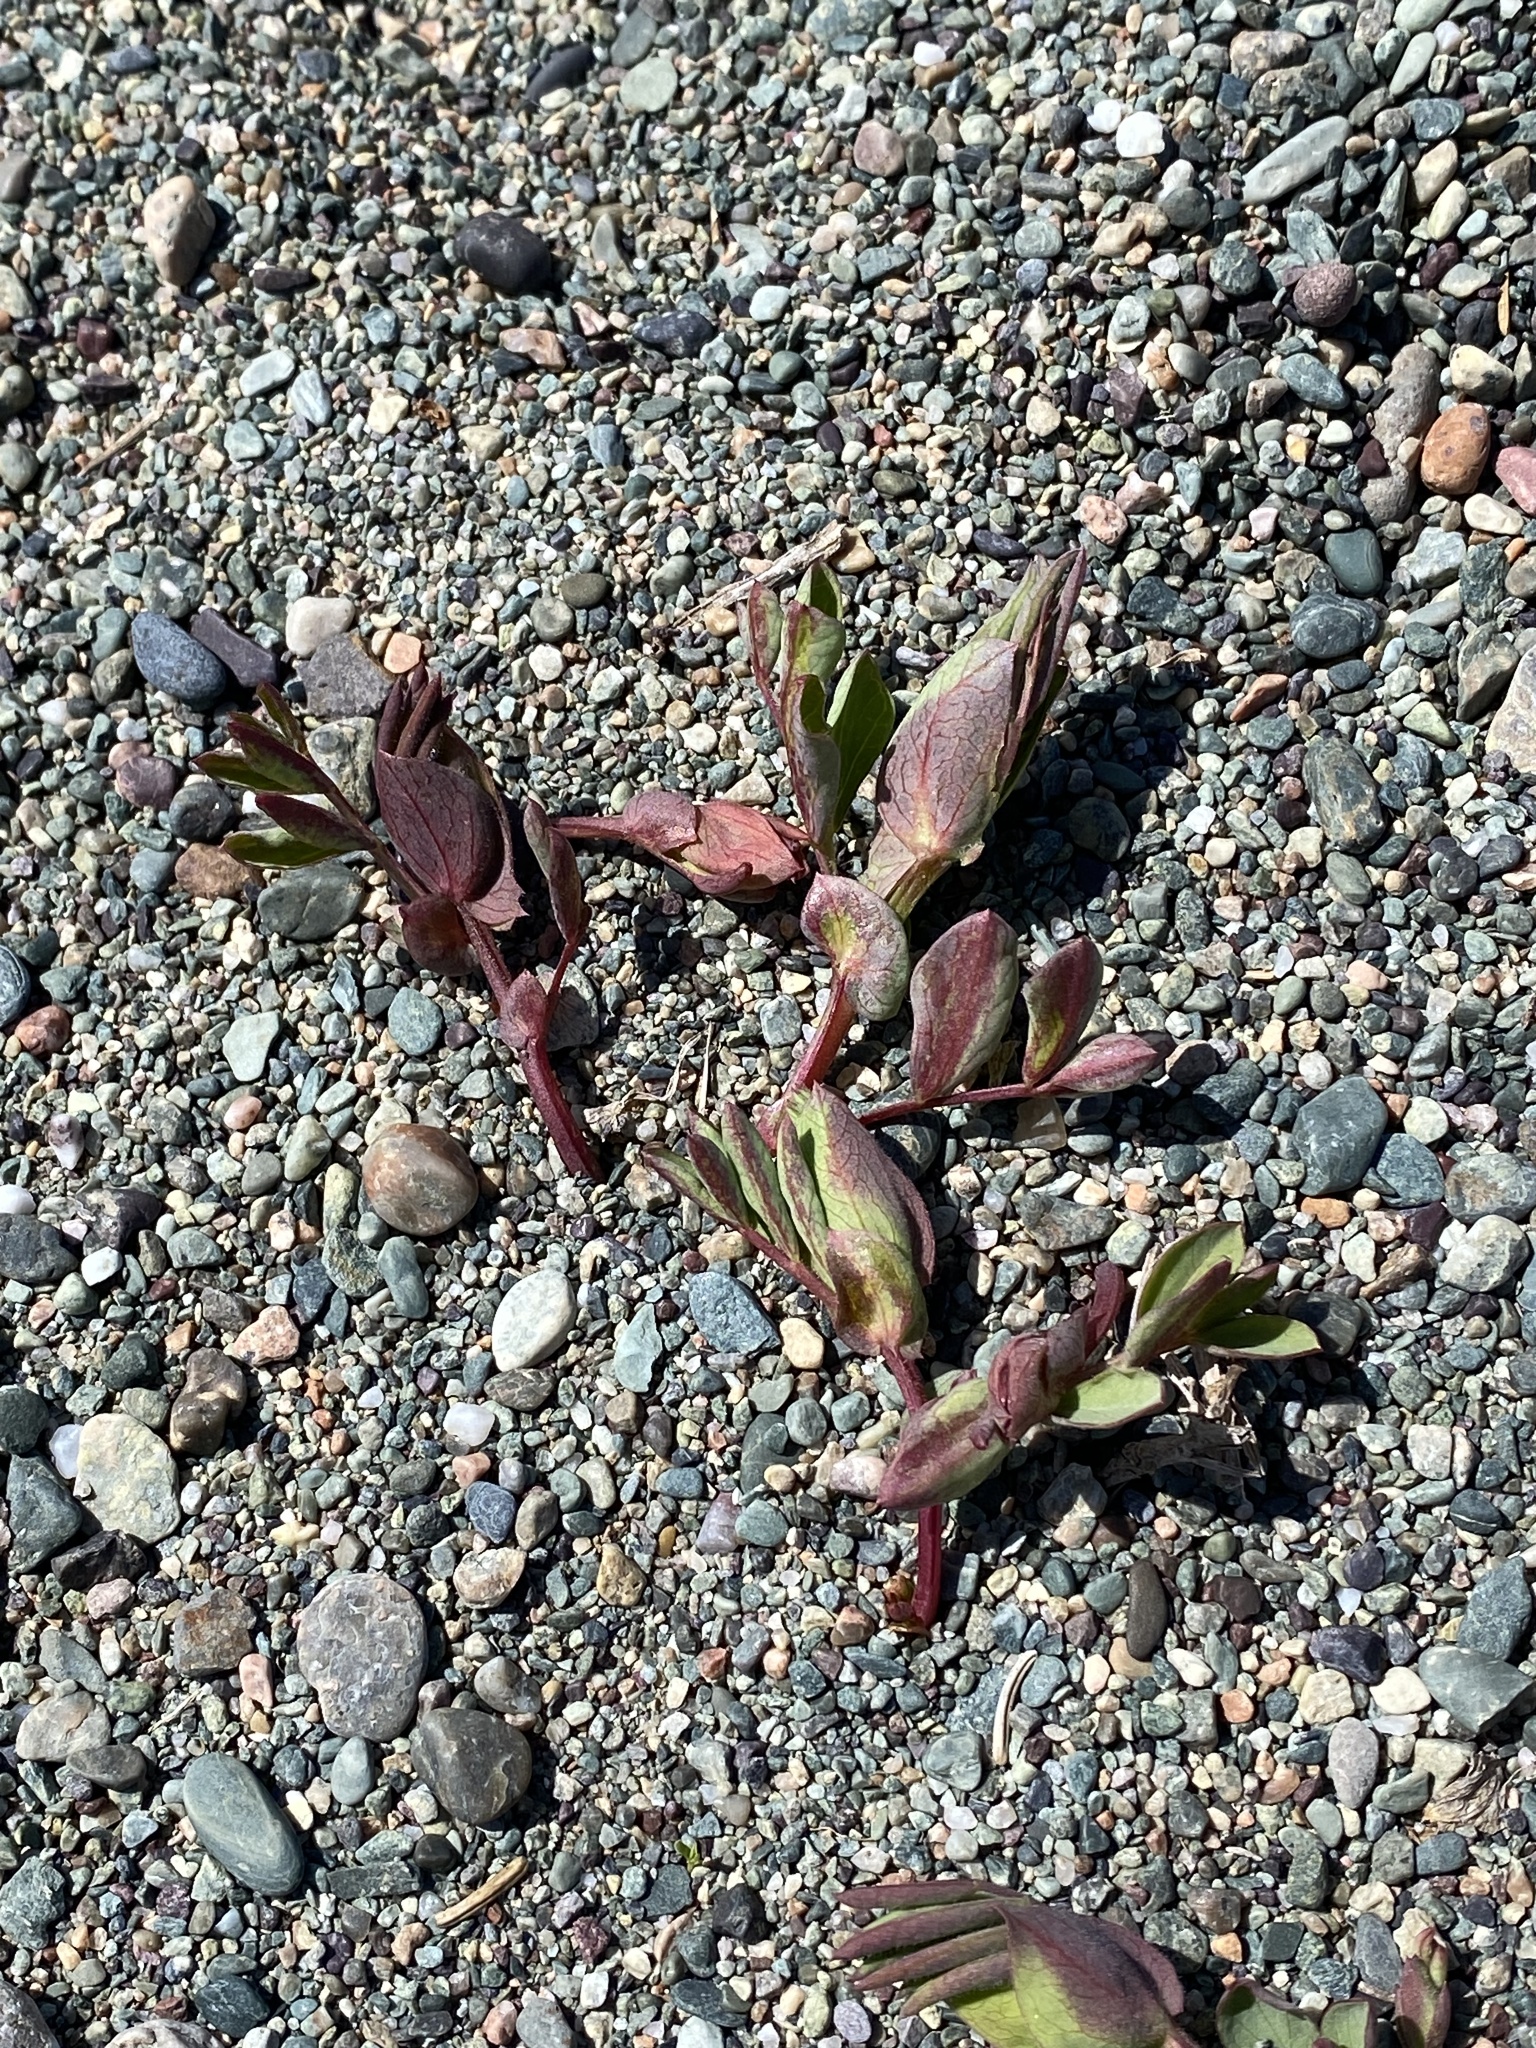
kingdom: Plantae
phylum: Tracheophyta
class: Magnoliopsida
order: Fabales
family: Fabaceae
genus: Lathyrus
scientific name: Lathyrus japonicus
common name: Sea pea
